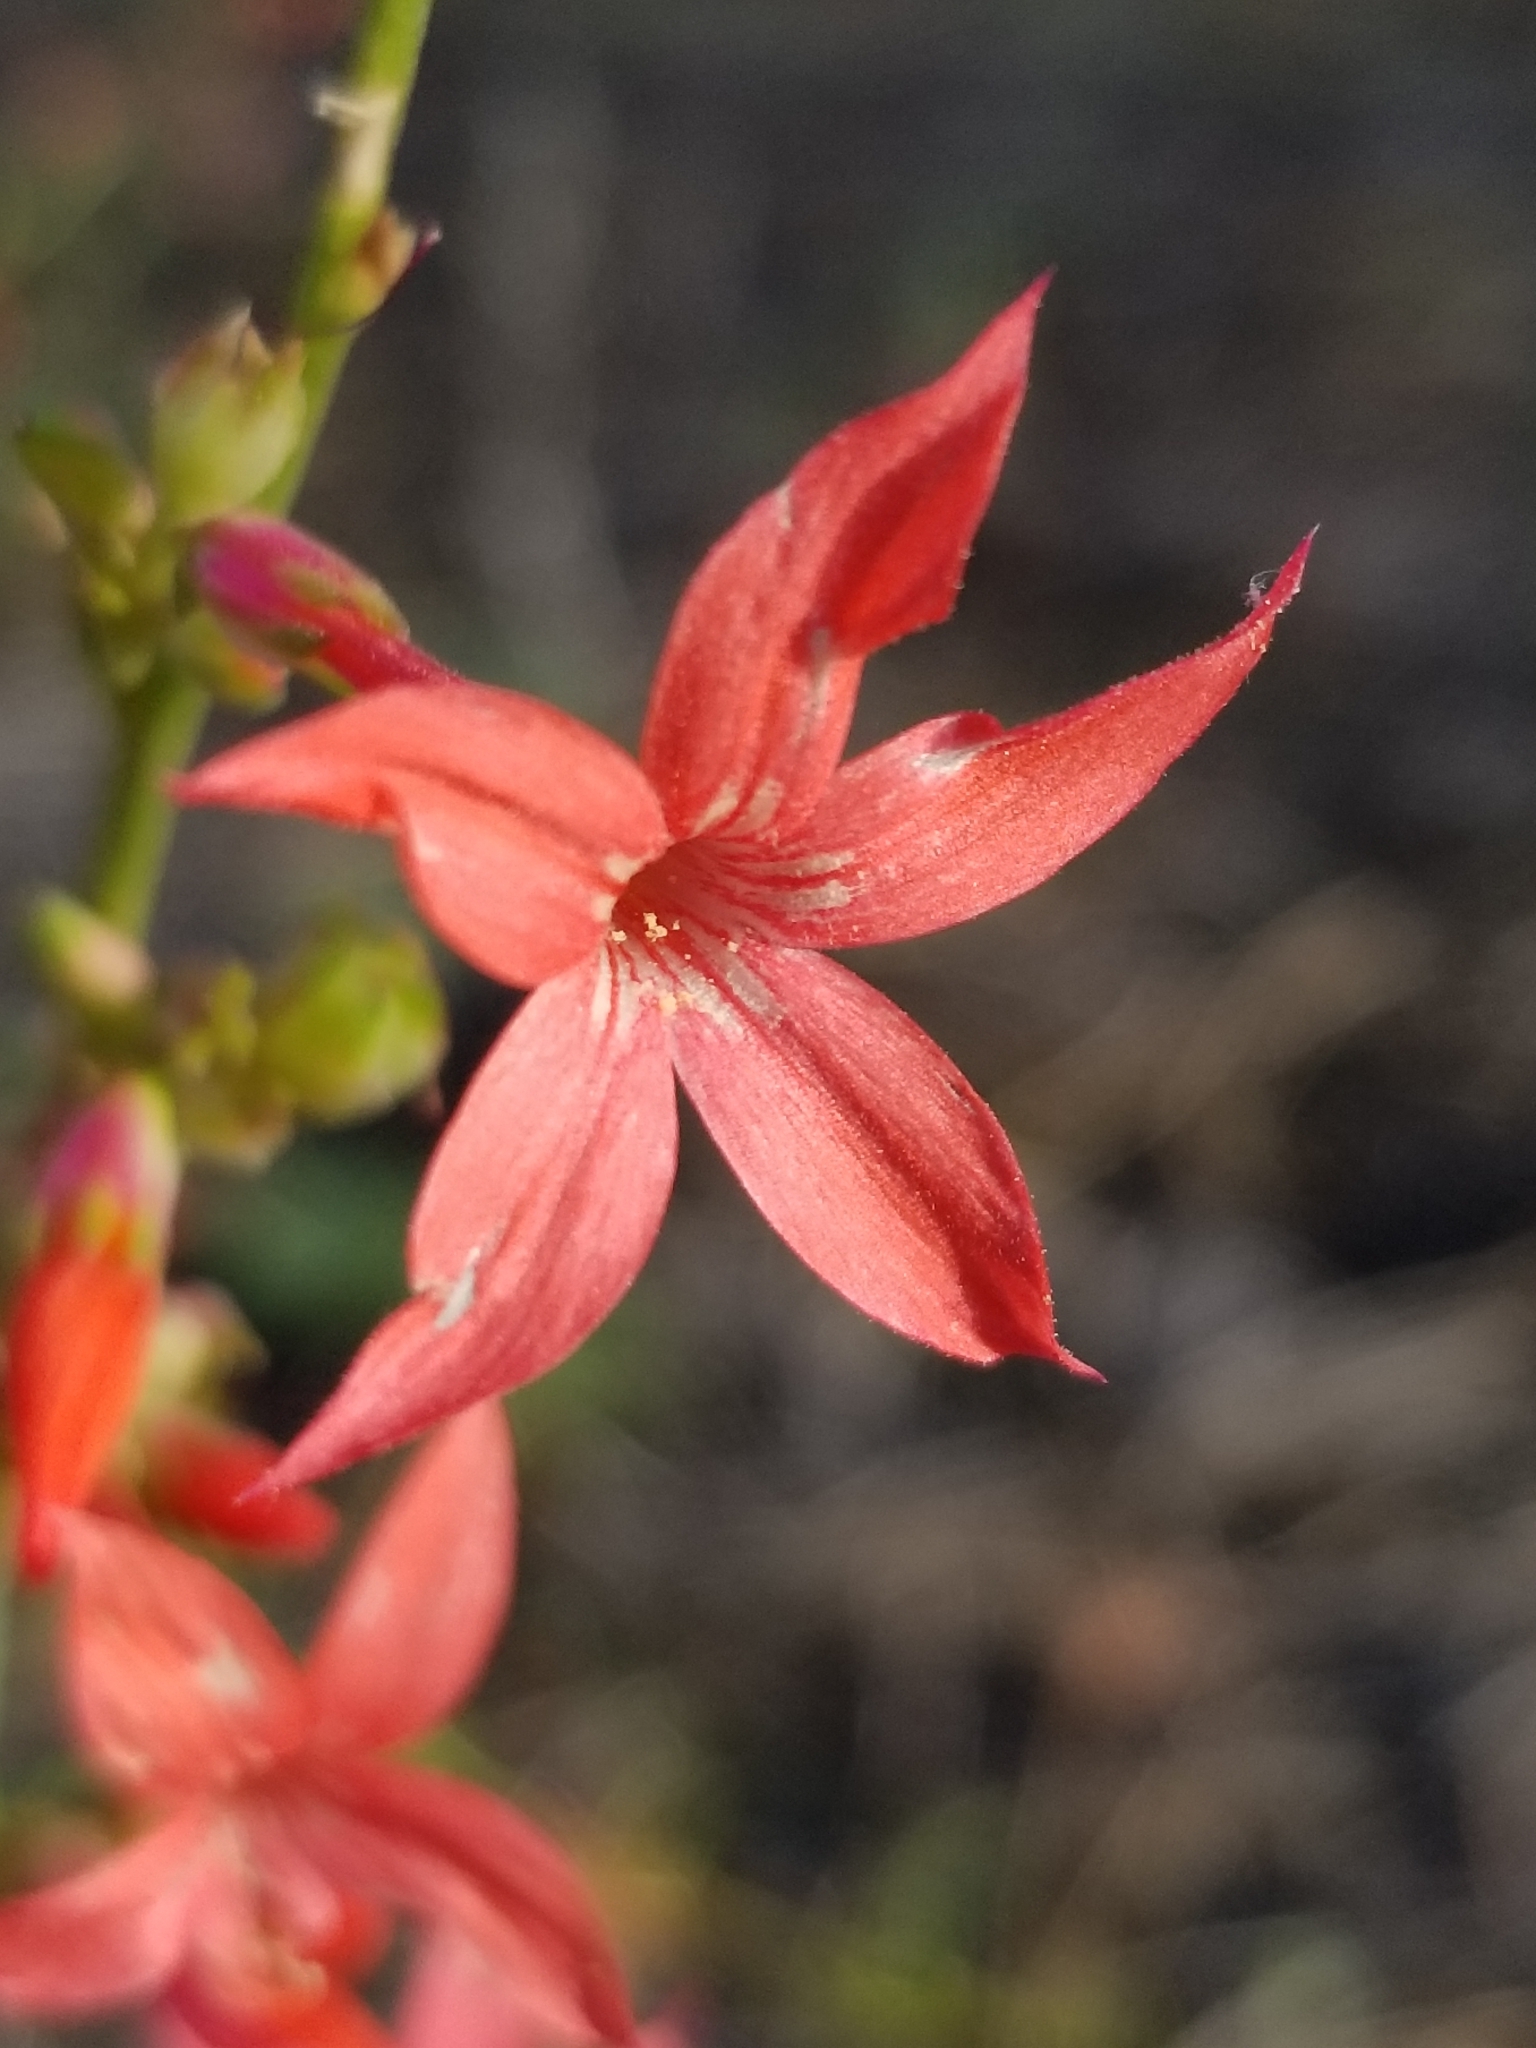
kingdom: Plantae
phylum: Tracheophyta
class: Magnoliopsida
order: Ericales
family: Polemoniaceae
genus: Ipomopsis
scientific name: Ipomopsis arizonica
